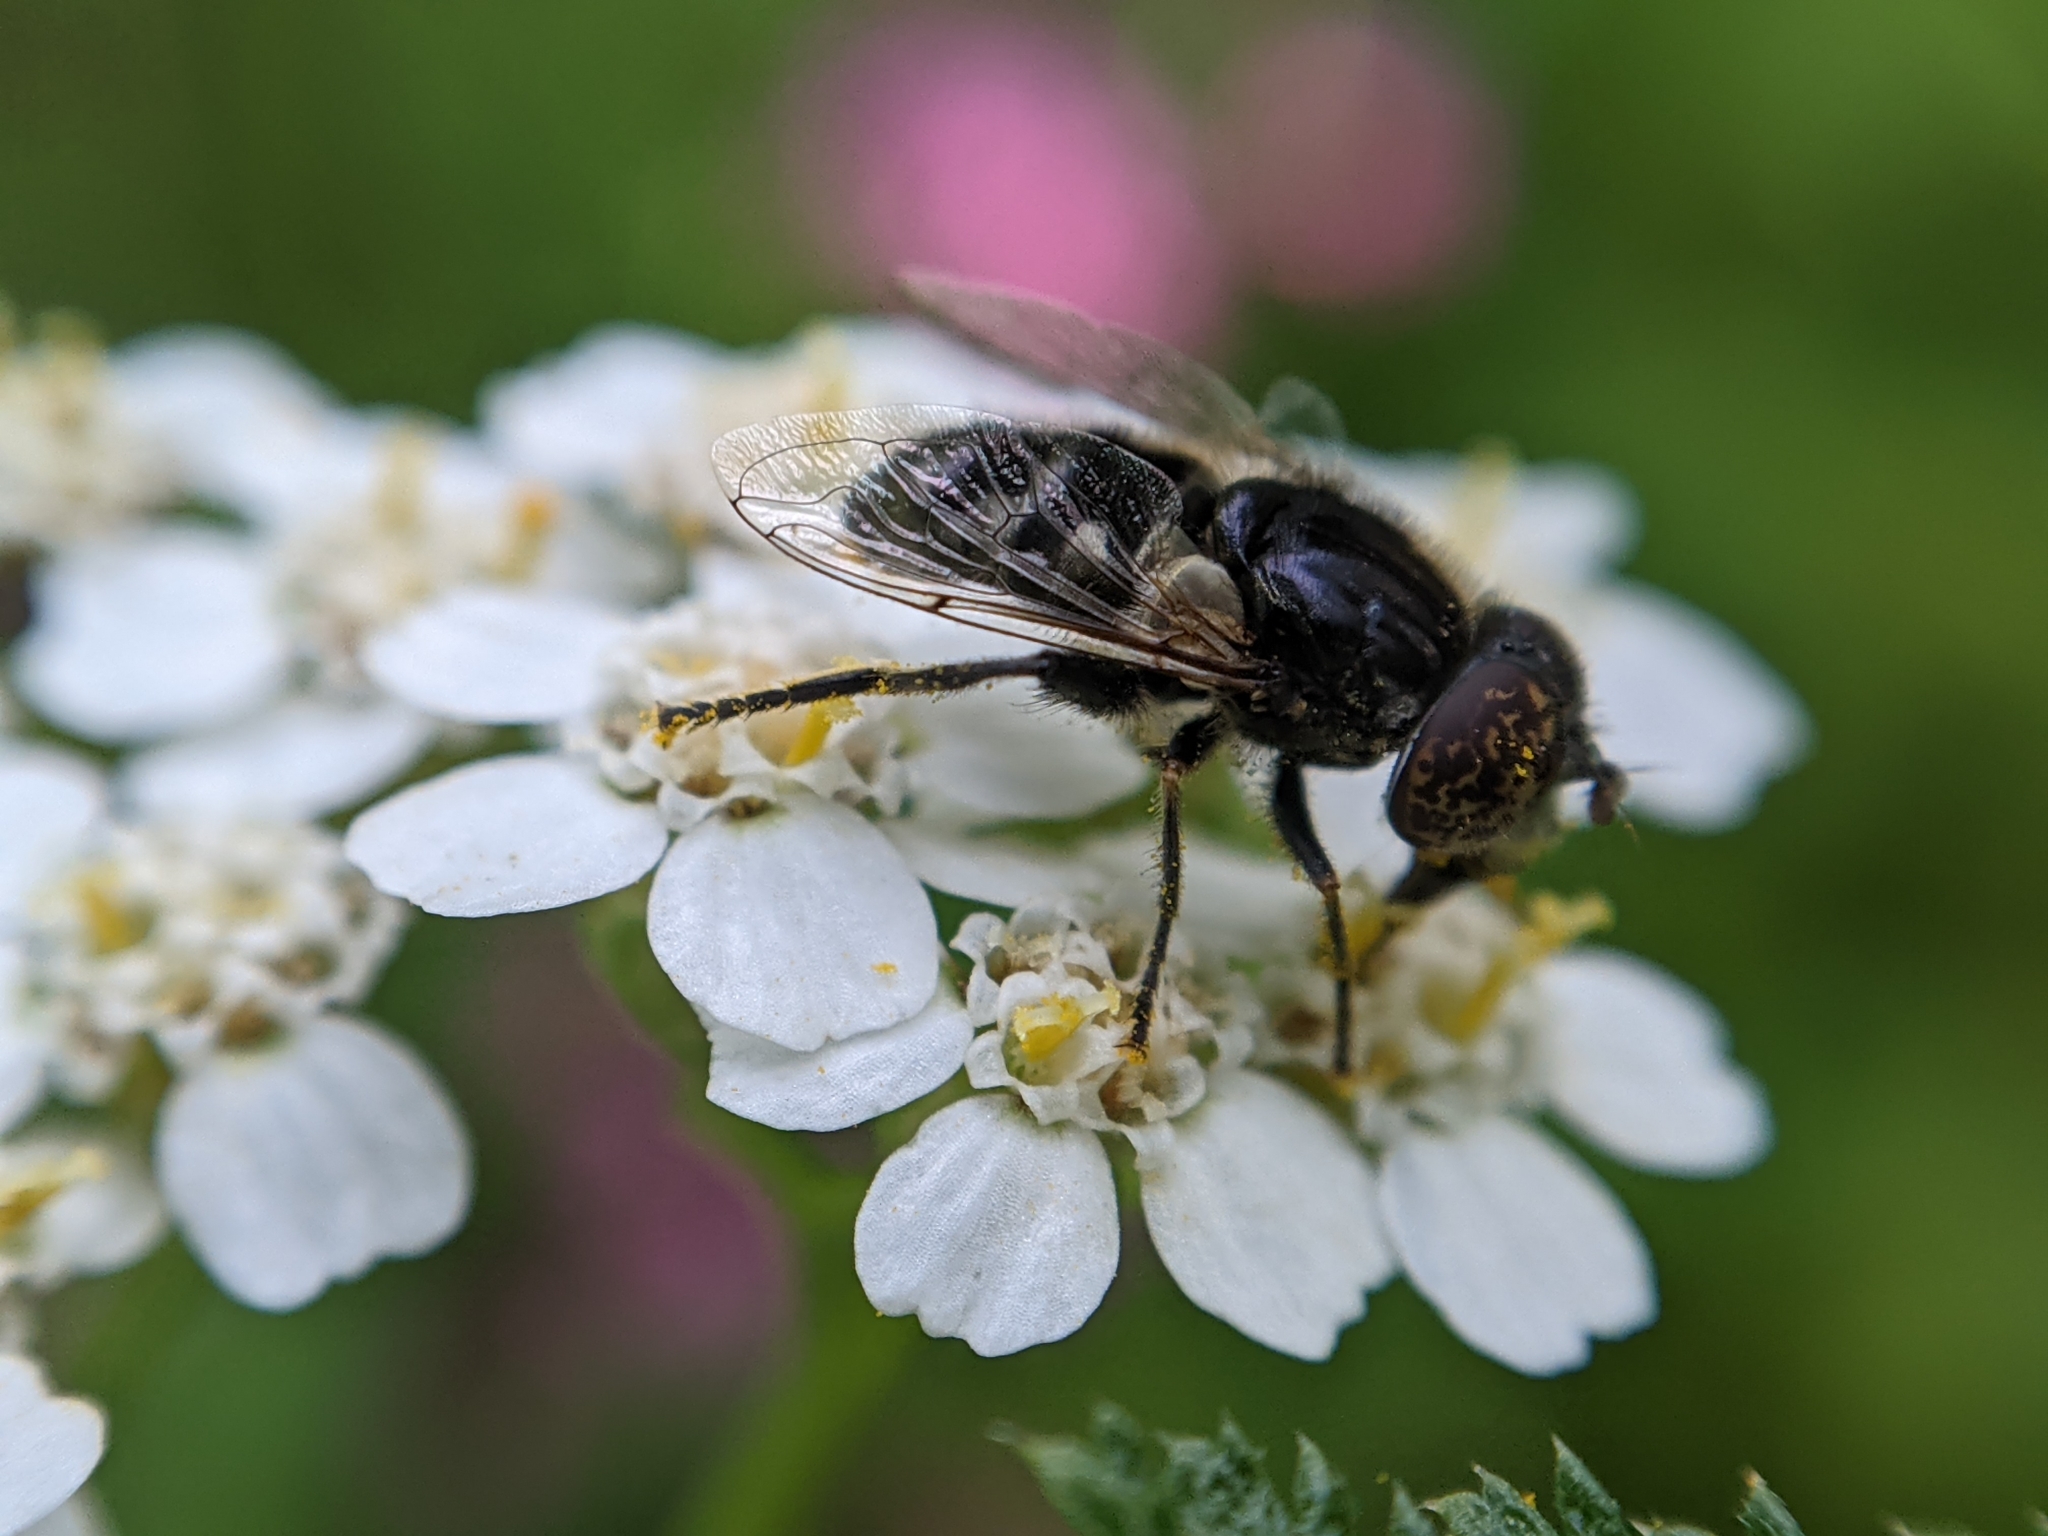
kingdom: Animalia
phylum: Arthropoda
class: Insecta
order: Diptera
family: Syrphidae
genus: Eristalinus
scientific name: Eristalinus sepulchralis
